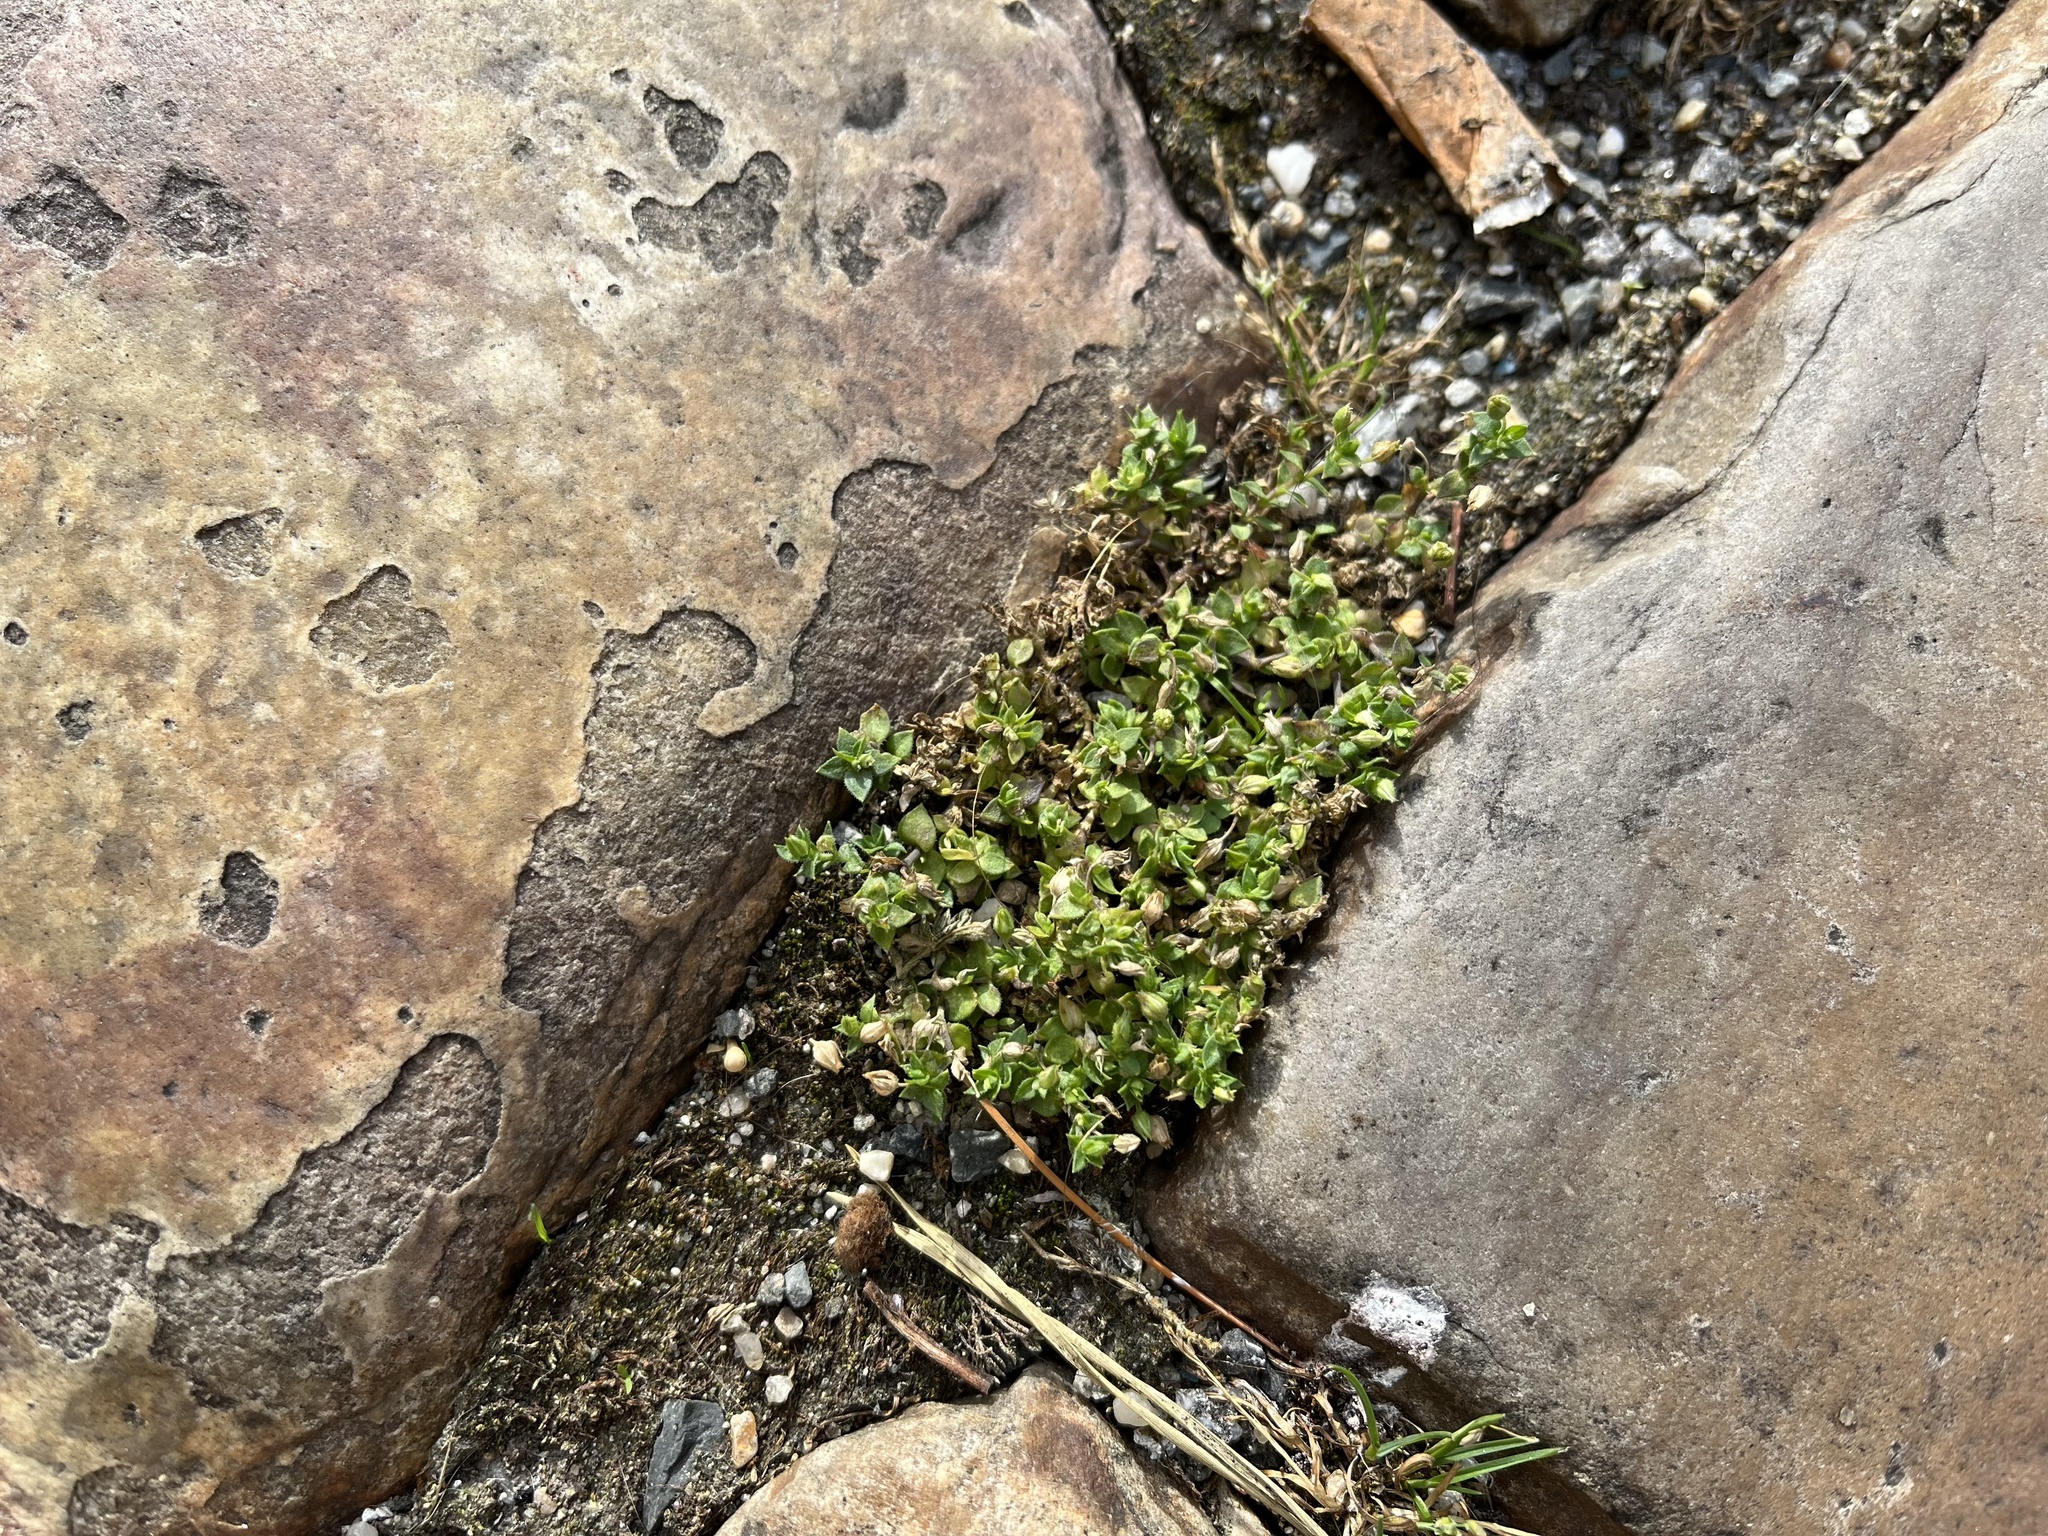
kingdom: Plantae
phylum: Tracheophyta
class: Magnoliopsida
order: Caryophyllales
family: Caryophyllaceae
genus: Arenaria
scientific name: Arenaria serpyllifolia
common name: Thyme-leaved sandwort
